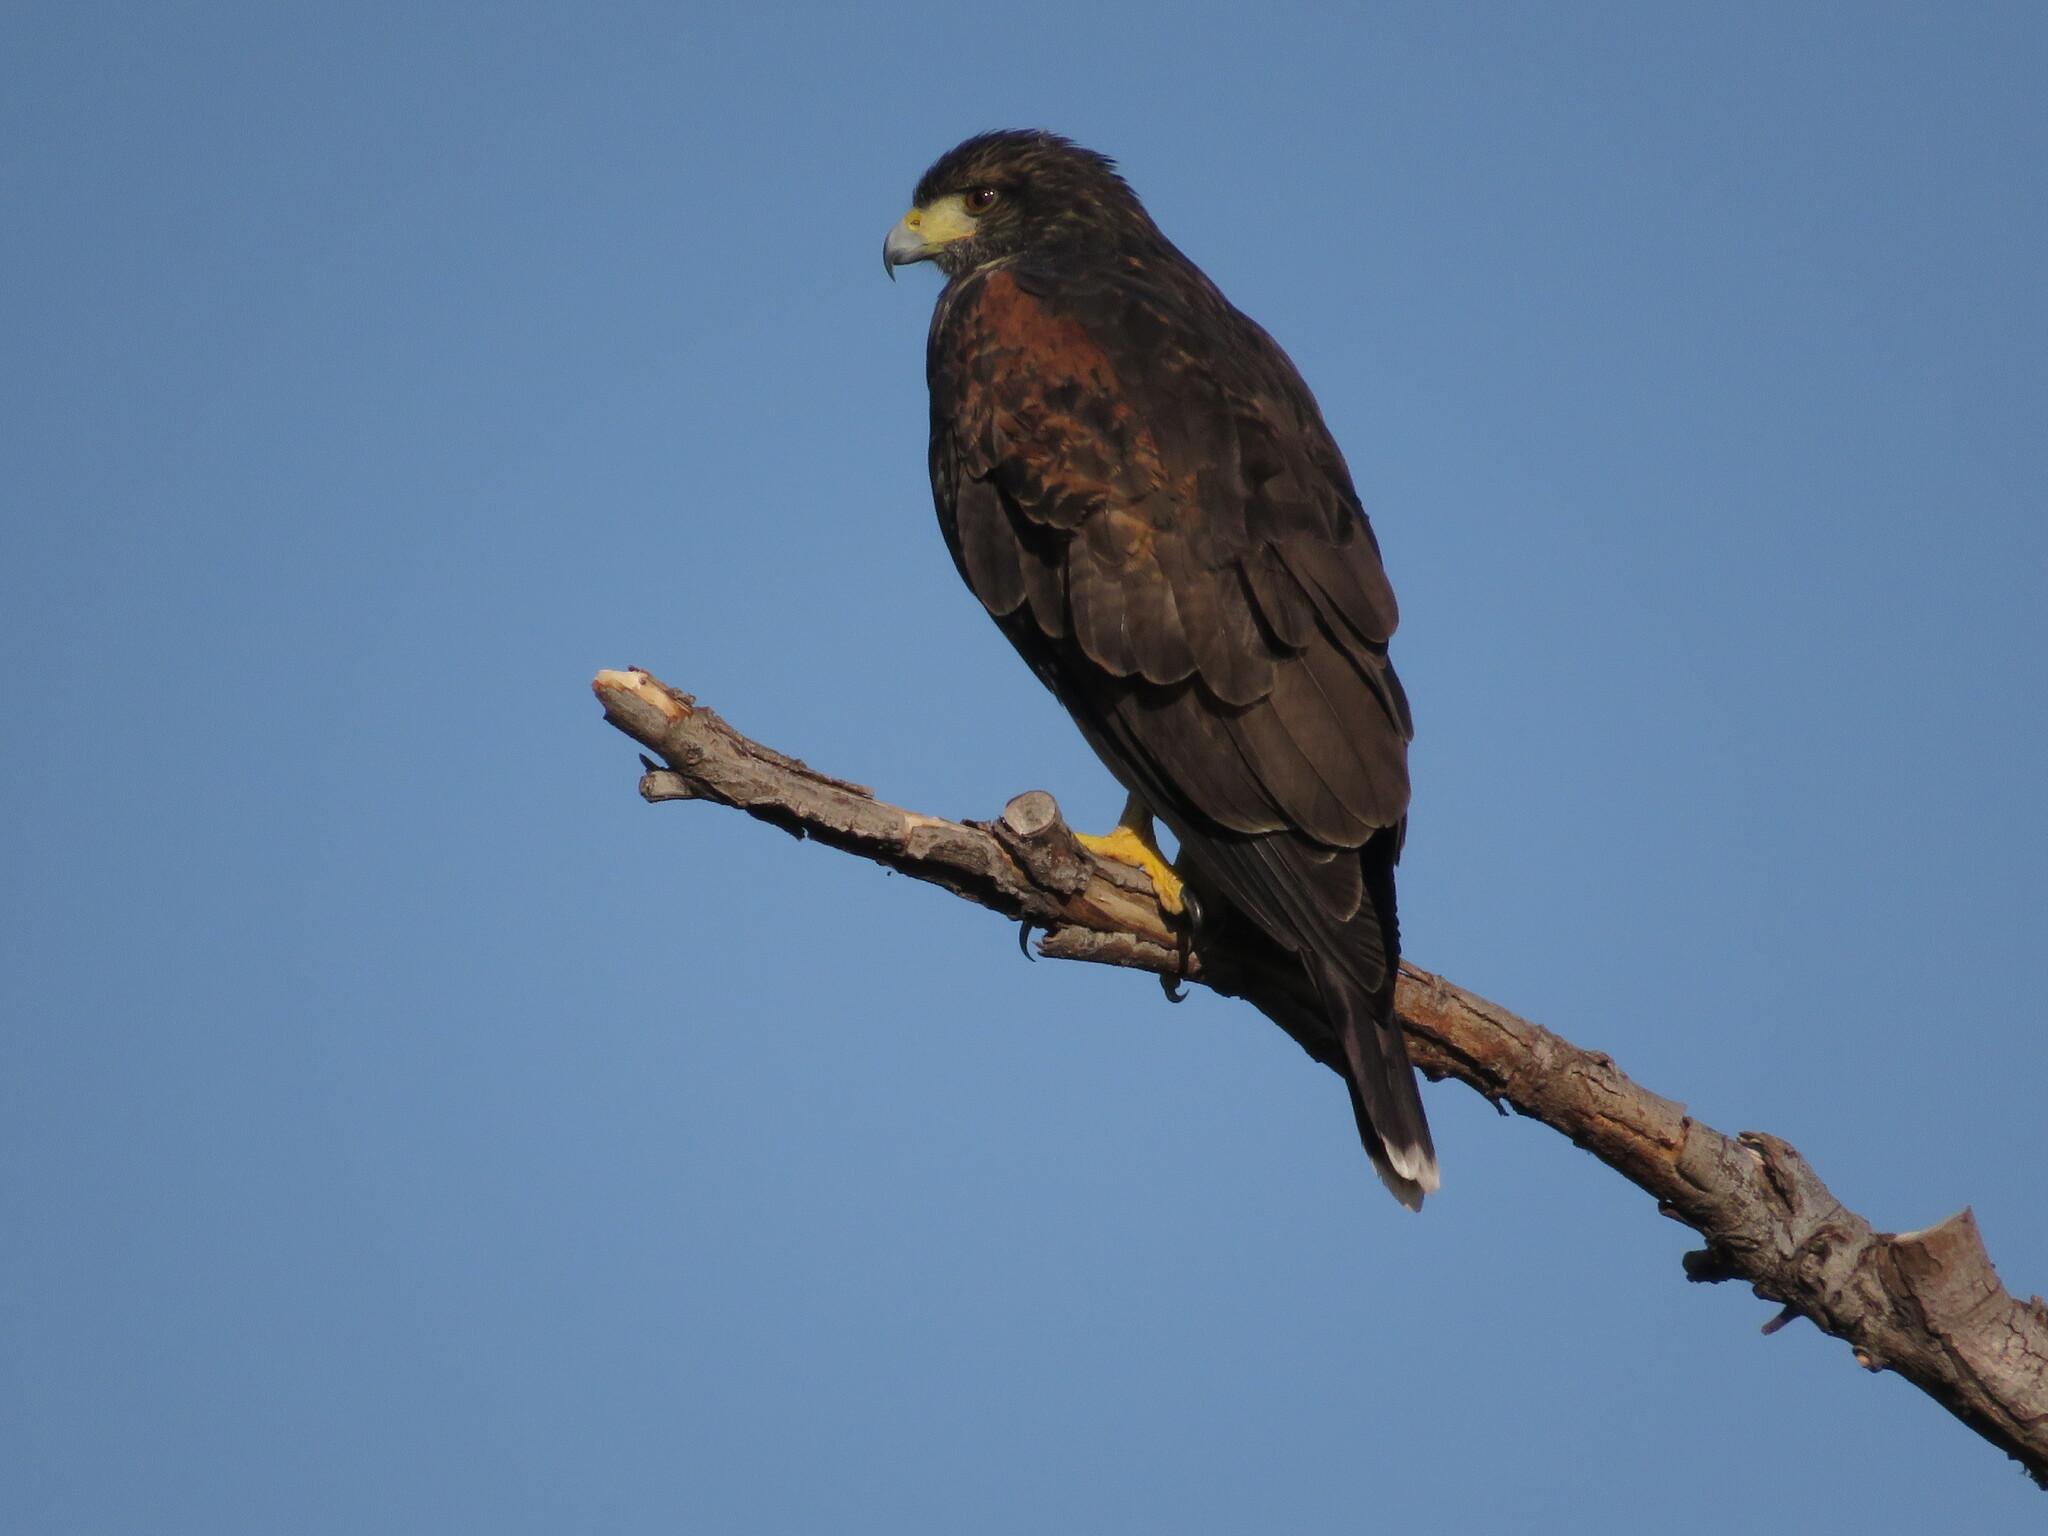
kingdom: Animalia
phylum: Chordata
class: Aves
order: Accipitriformes
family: Accipitridae
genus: Parabuteo
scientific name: Parabuteo unicinctus
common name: Harris's hawk
